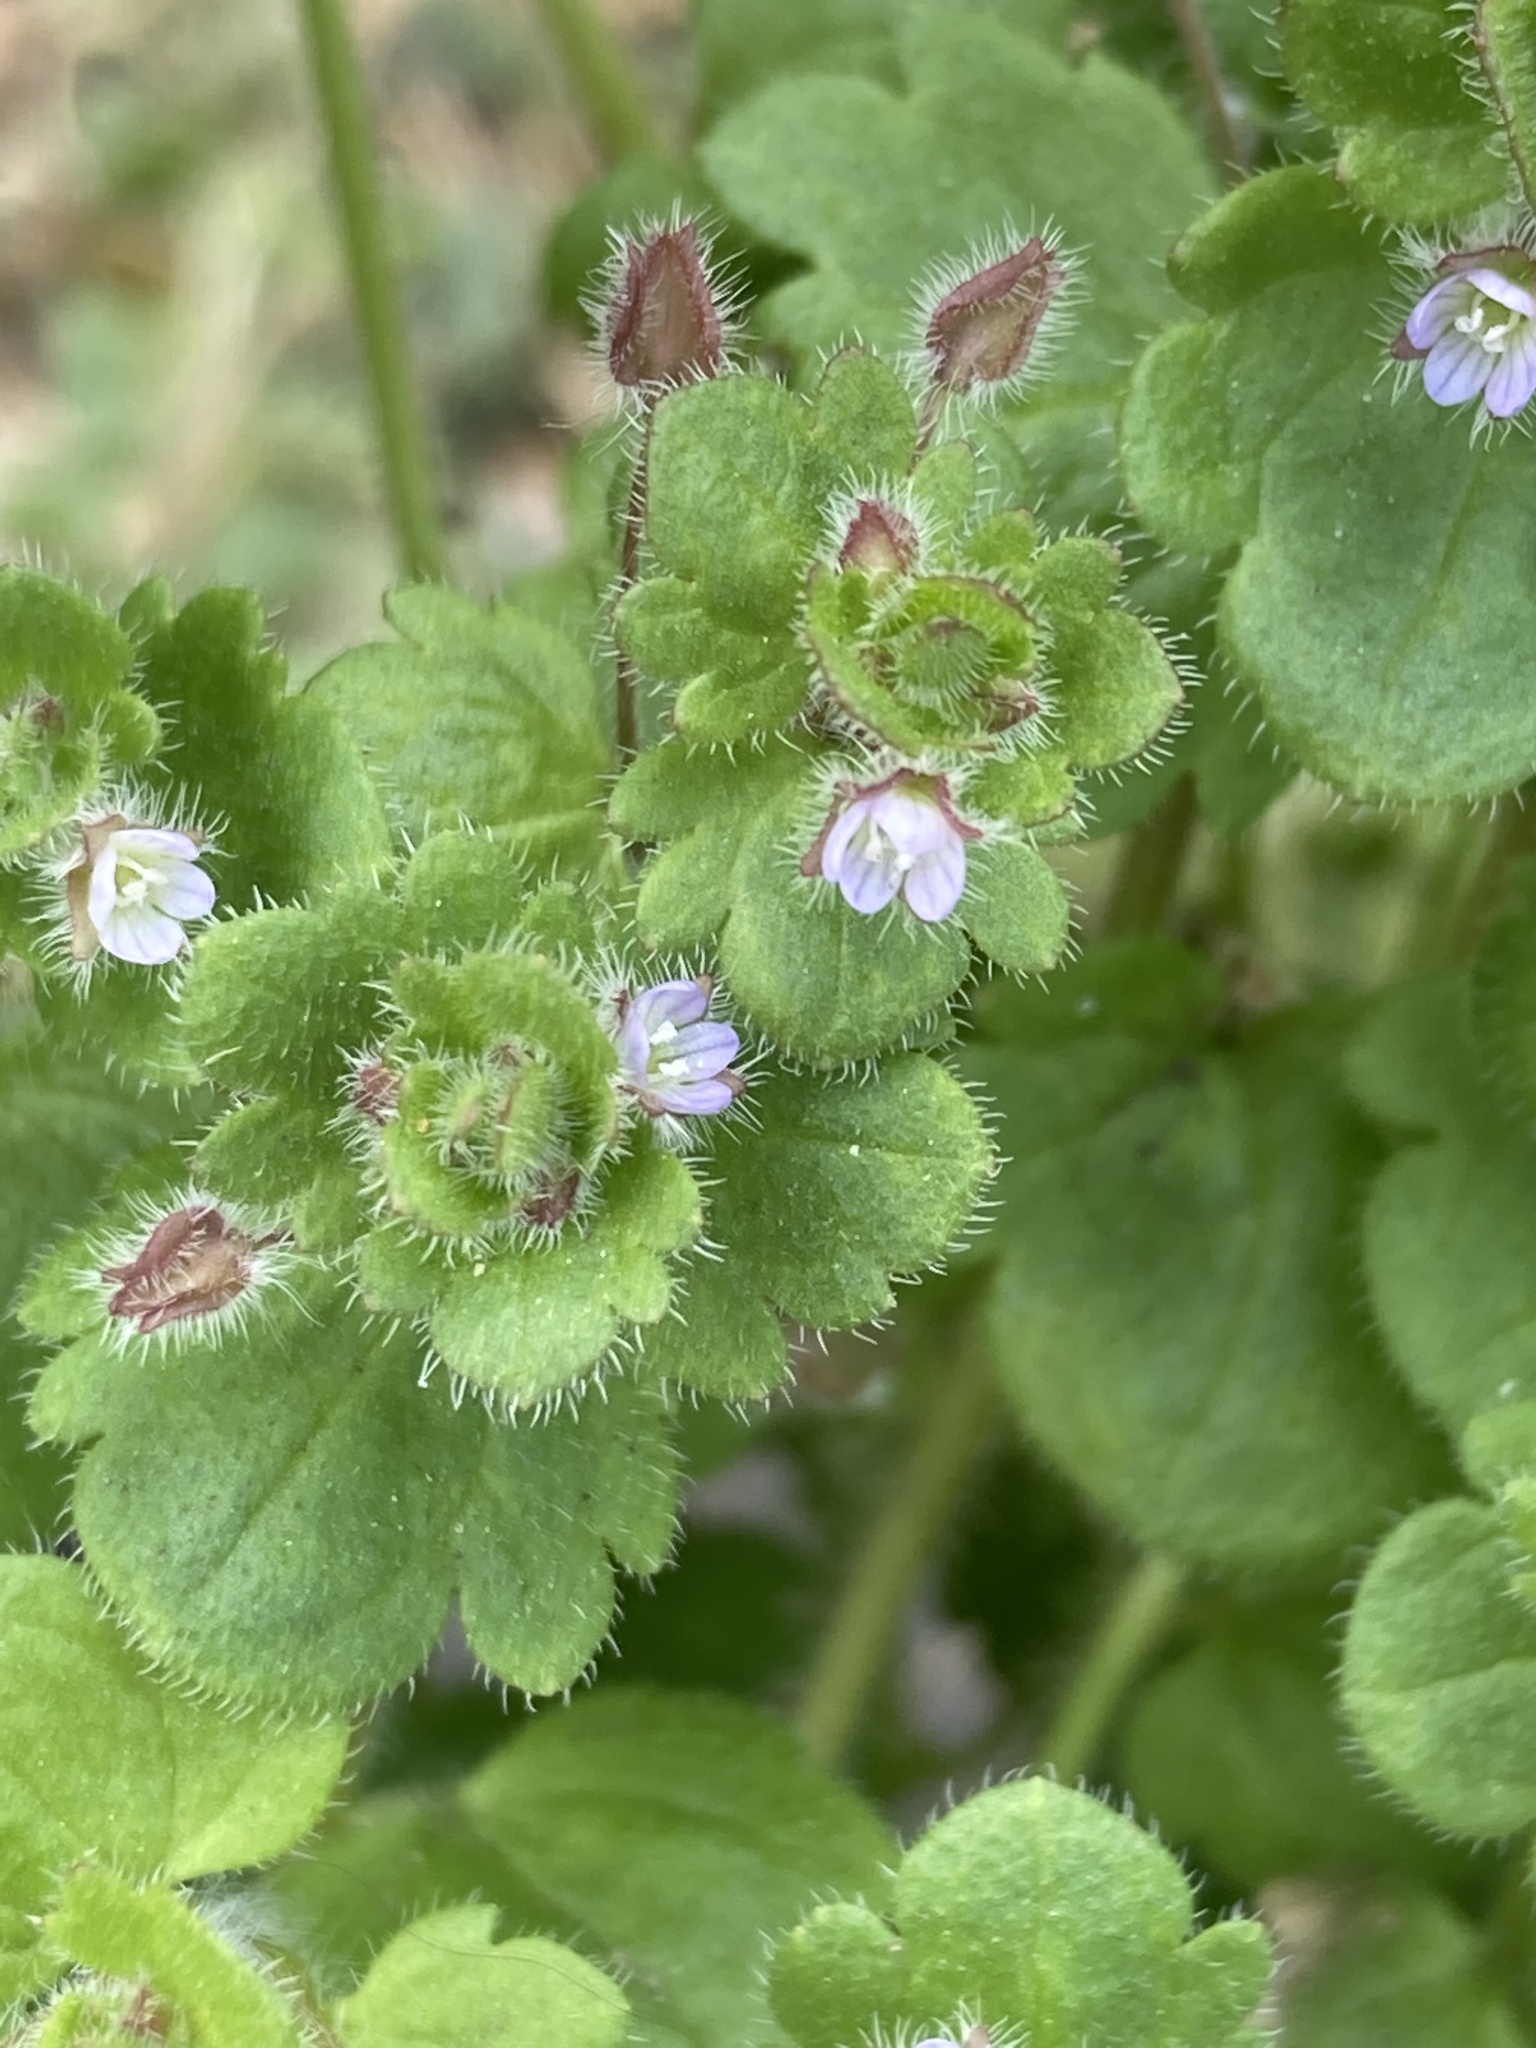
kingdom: Plantae
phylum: Tracheophyta
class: Magnoliopsida
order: Lamiales
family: Plantaginaceae
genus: Veronica
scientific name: Veronica sublobata
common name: False ivy-leaved speedwell
